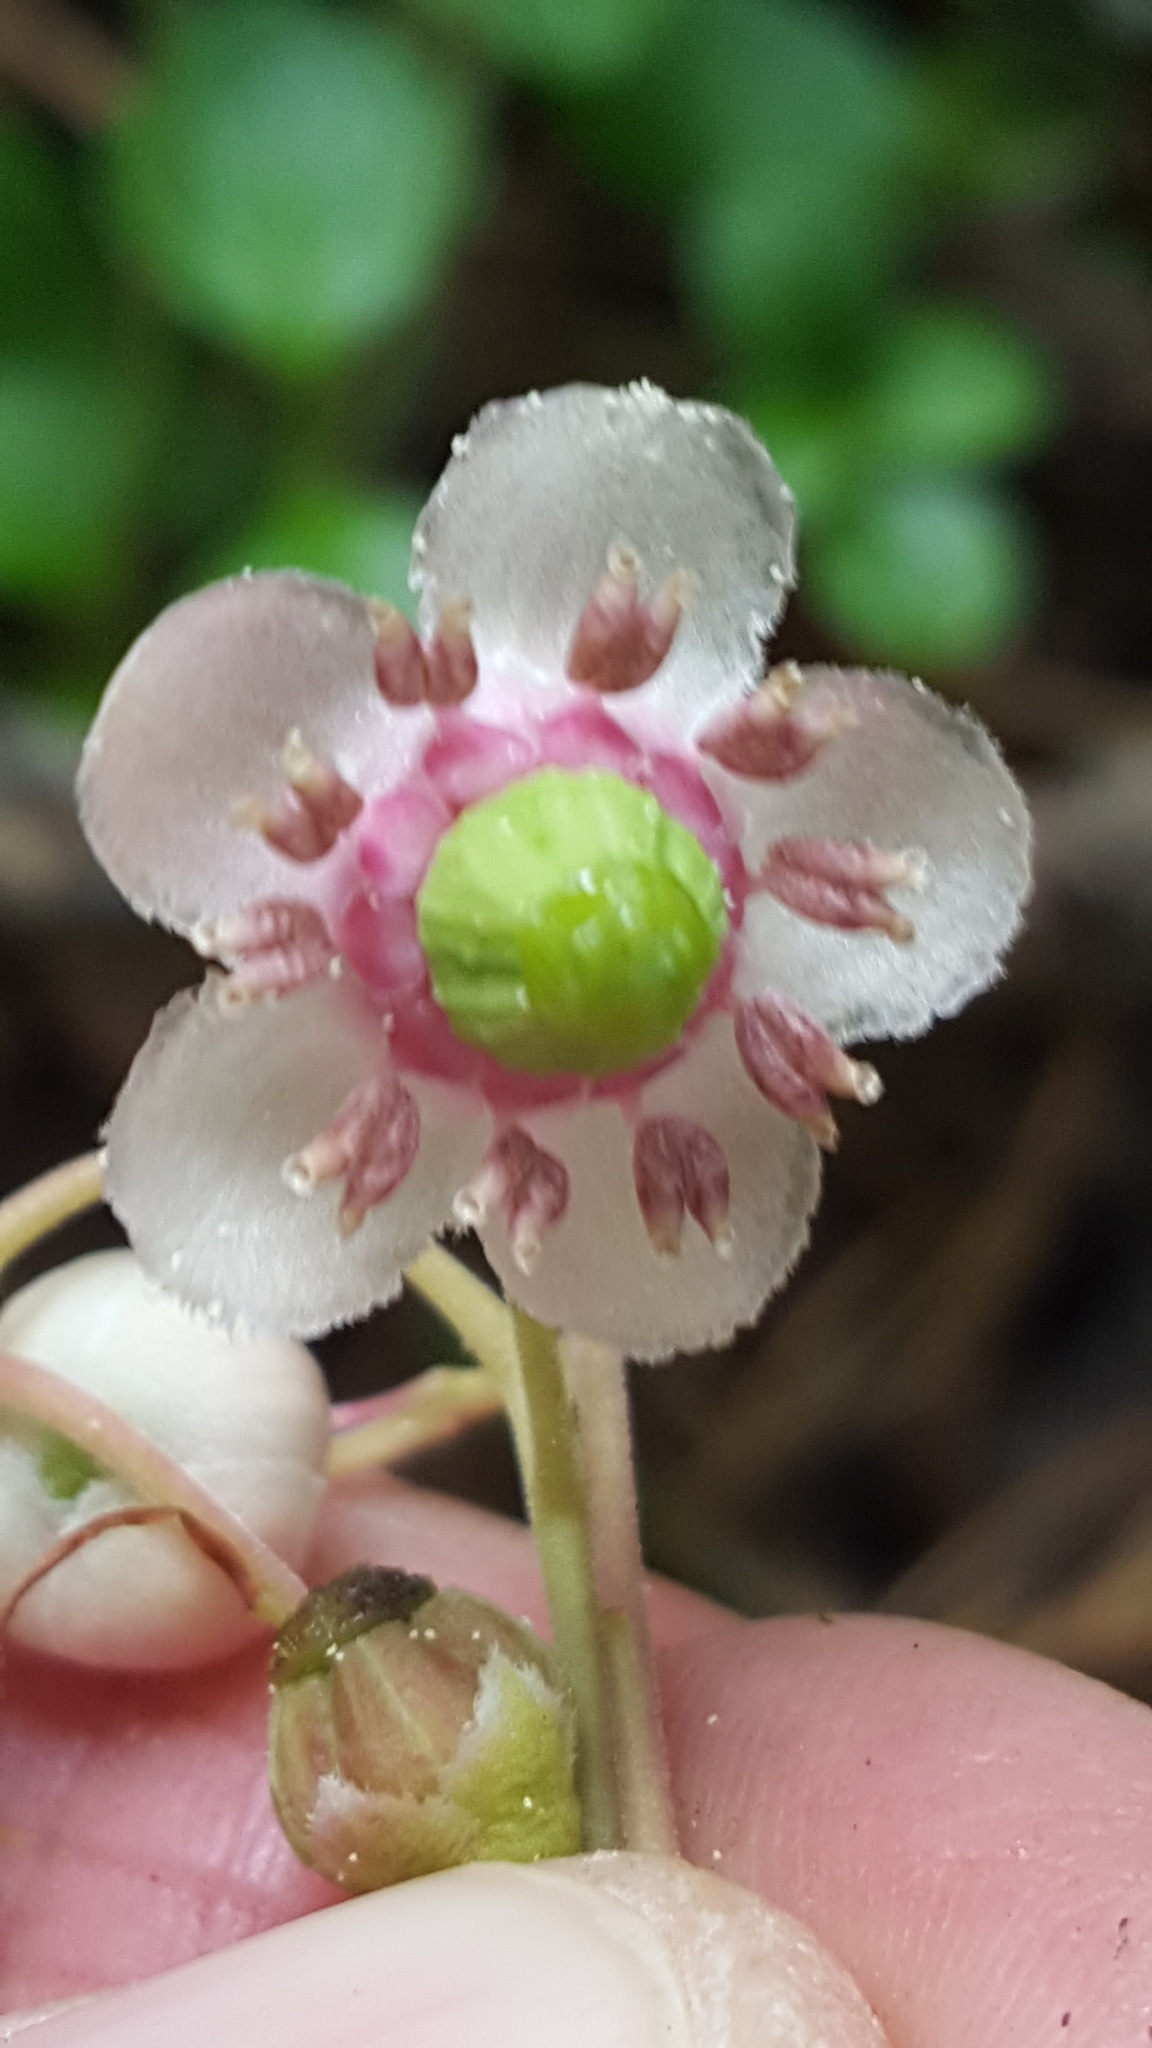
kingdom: Plantae
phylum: Tracheophyta
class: Magnoliopsida
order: Ericales
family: Ericaceae
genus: Chimaphila
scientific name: Chimaphila umbellata
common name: Pipsissewa
